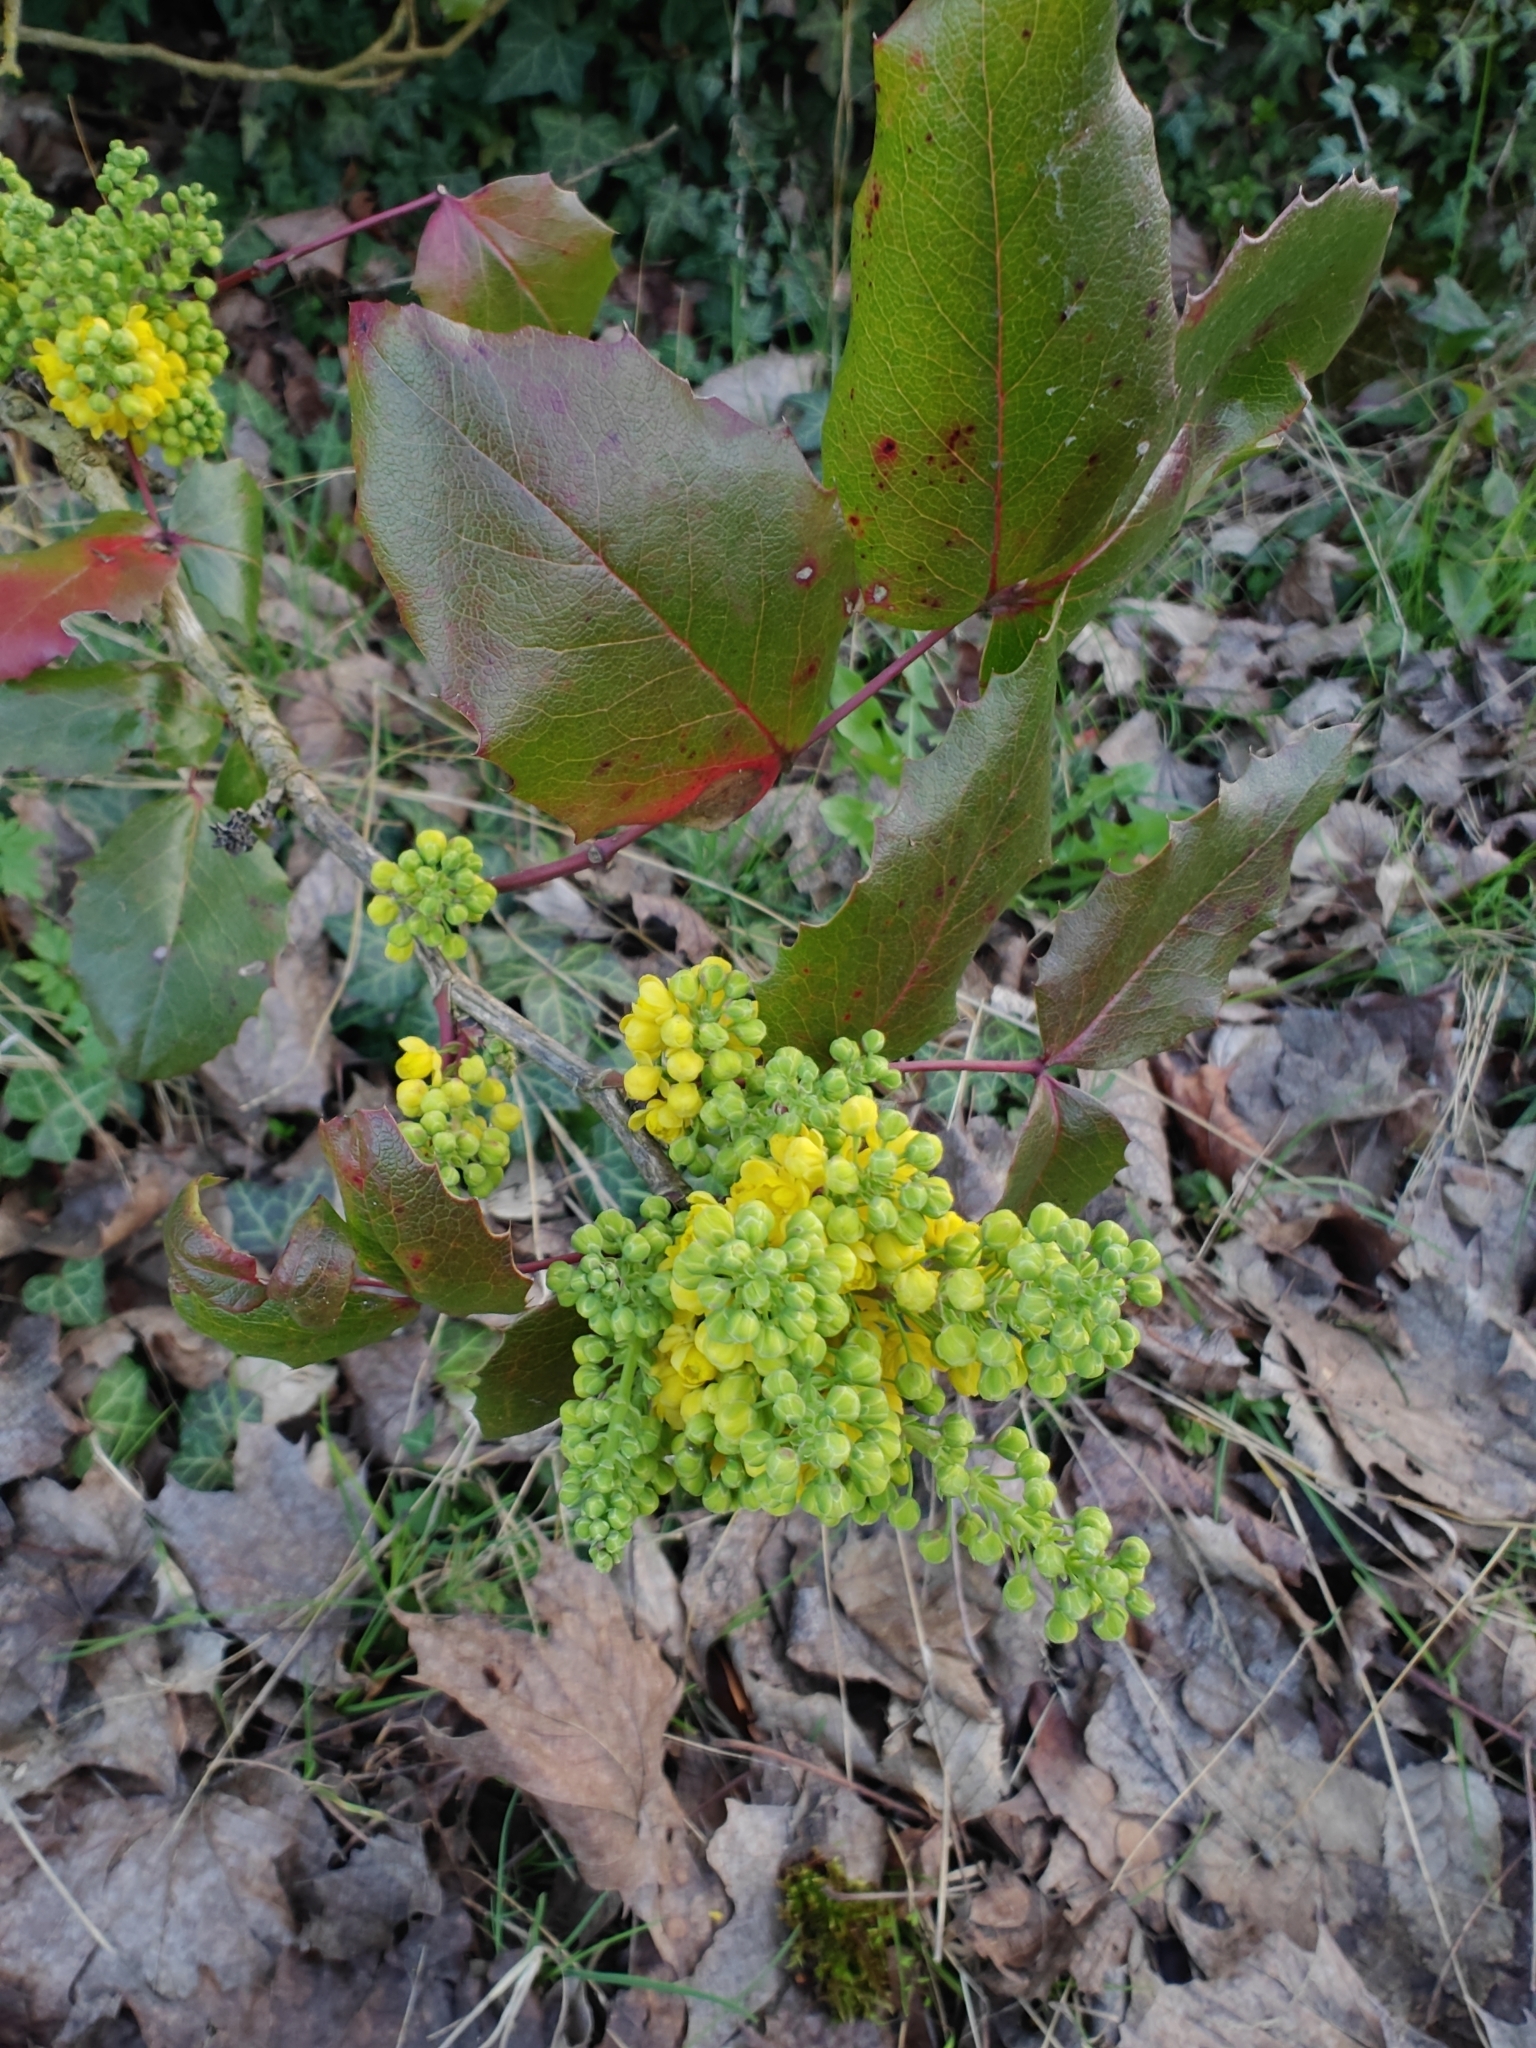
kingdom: Plantae
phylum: Tracheophyta
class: Magnoliopsida
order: Ranunculales
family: Berberidaceae
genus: Mahonia
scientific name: Mahonia aquifolium
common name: Oregon-grape
